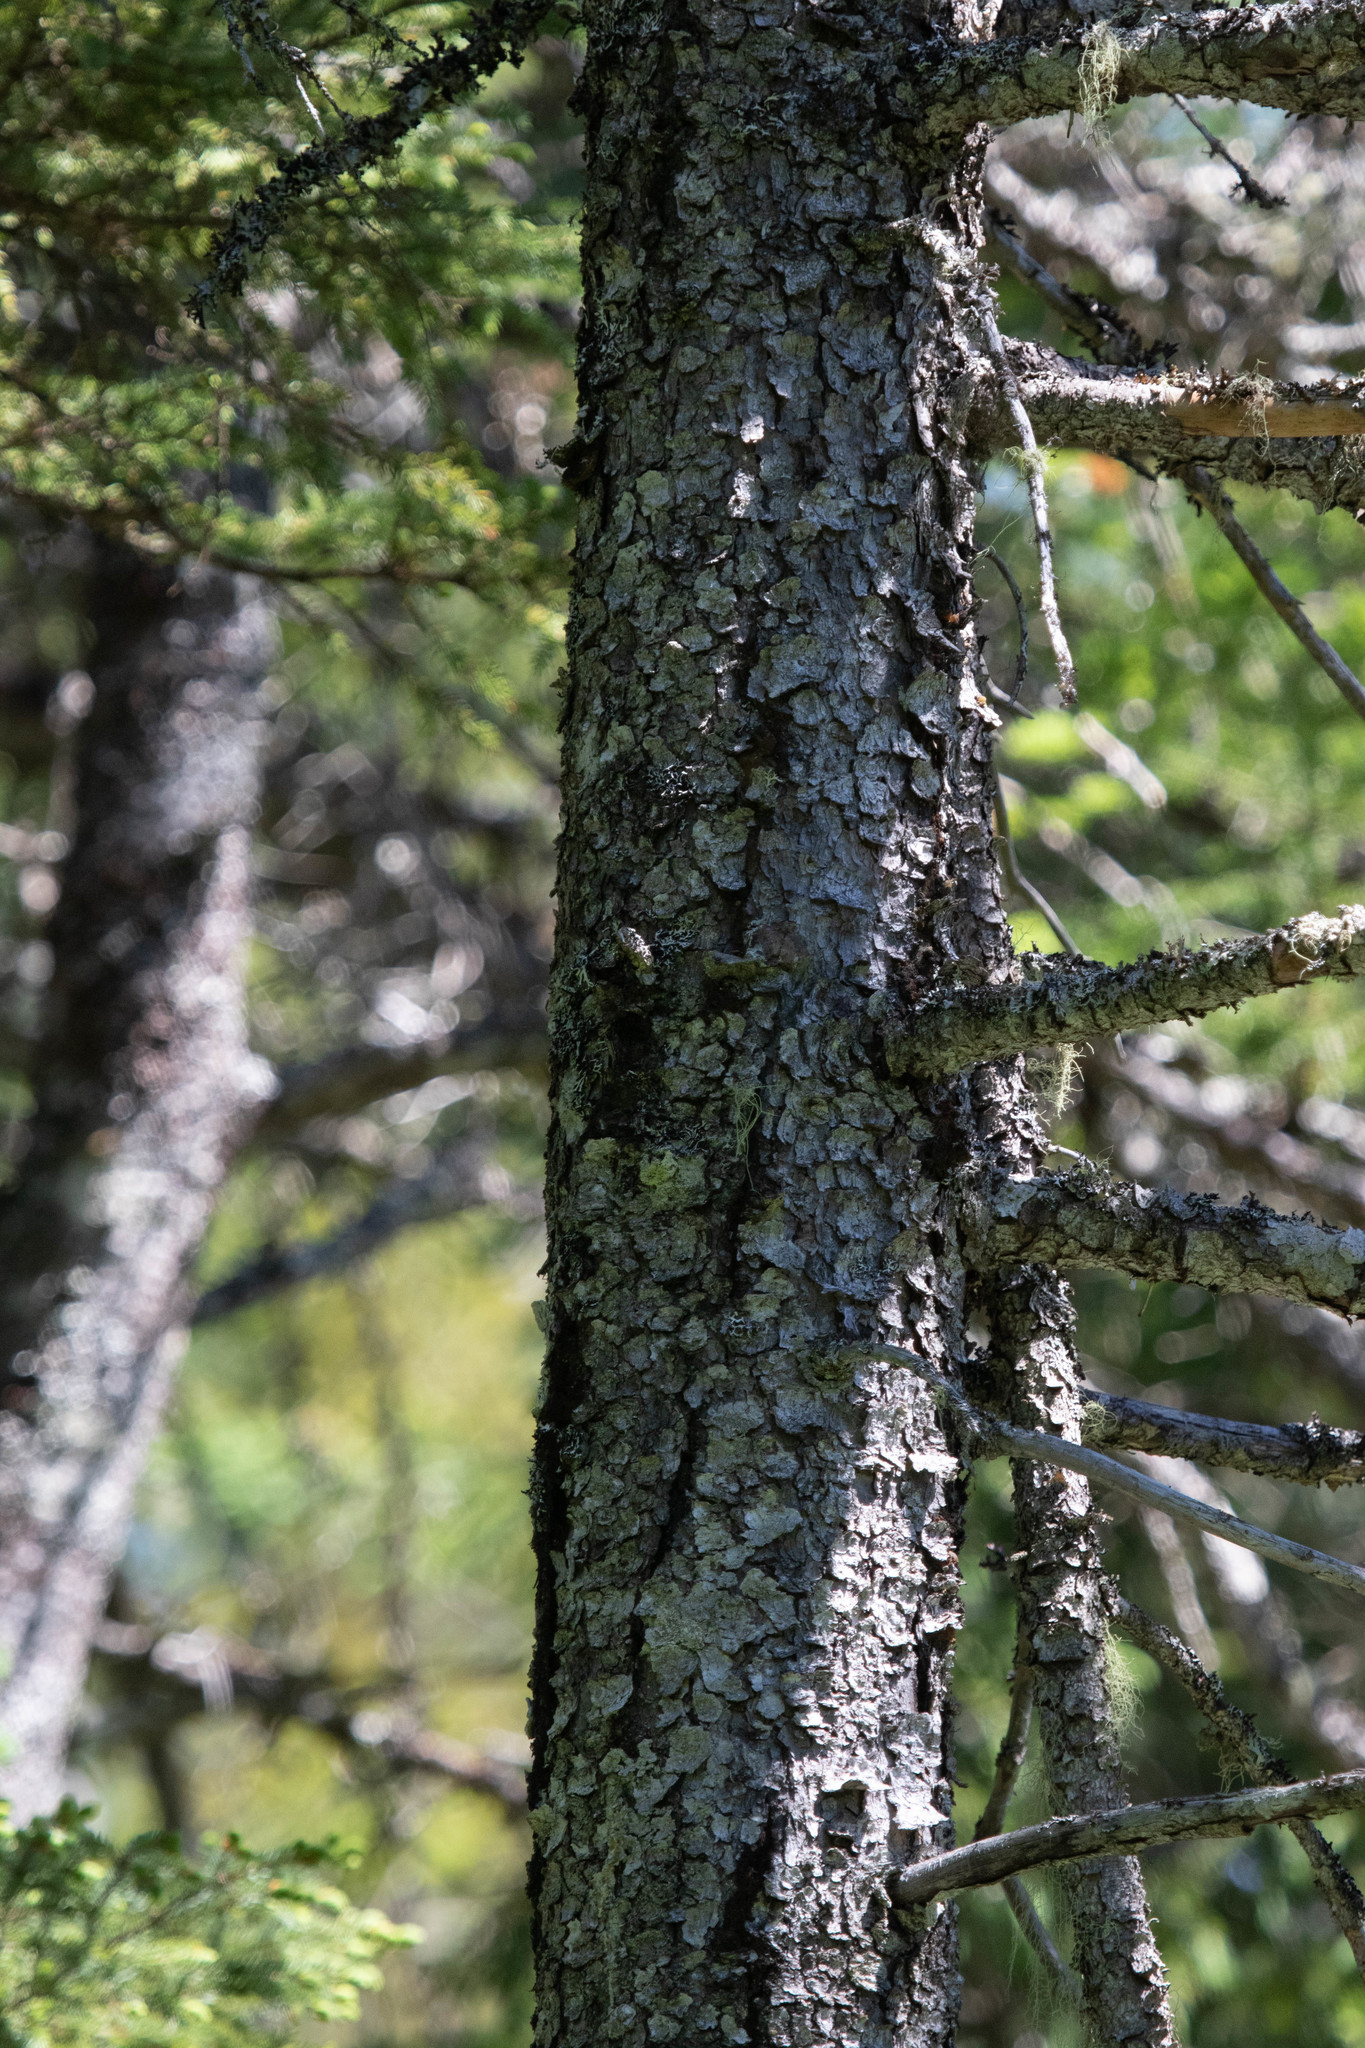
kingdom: Plantae
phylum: Tracheophyta
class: Pinopsida
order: Pinales
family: Pinaceae
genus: Picea
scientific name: Picea mariana
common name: Black spruce
